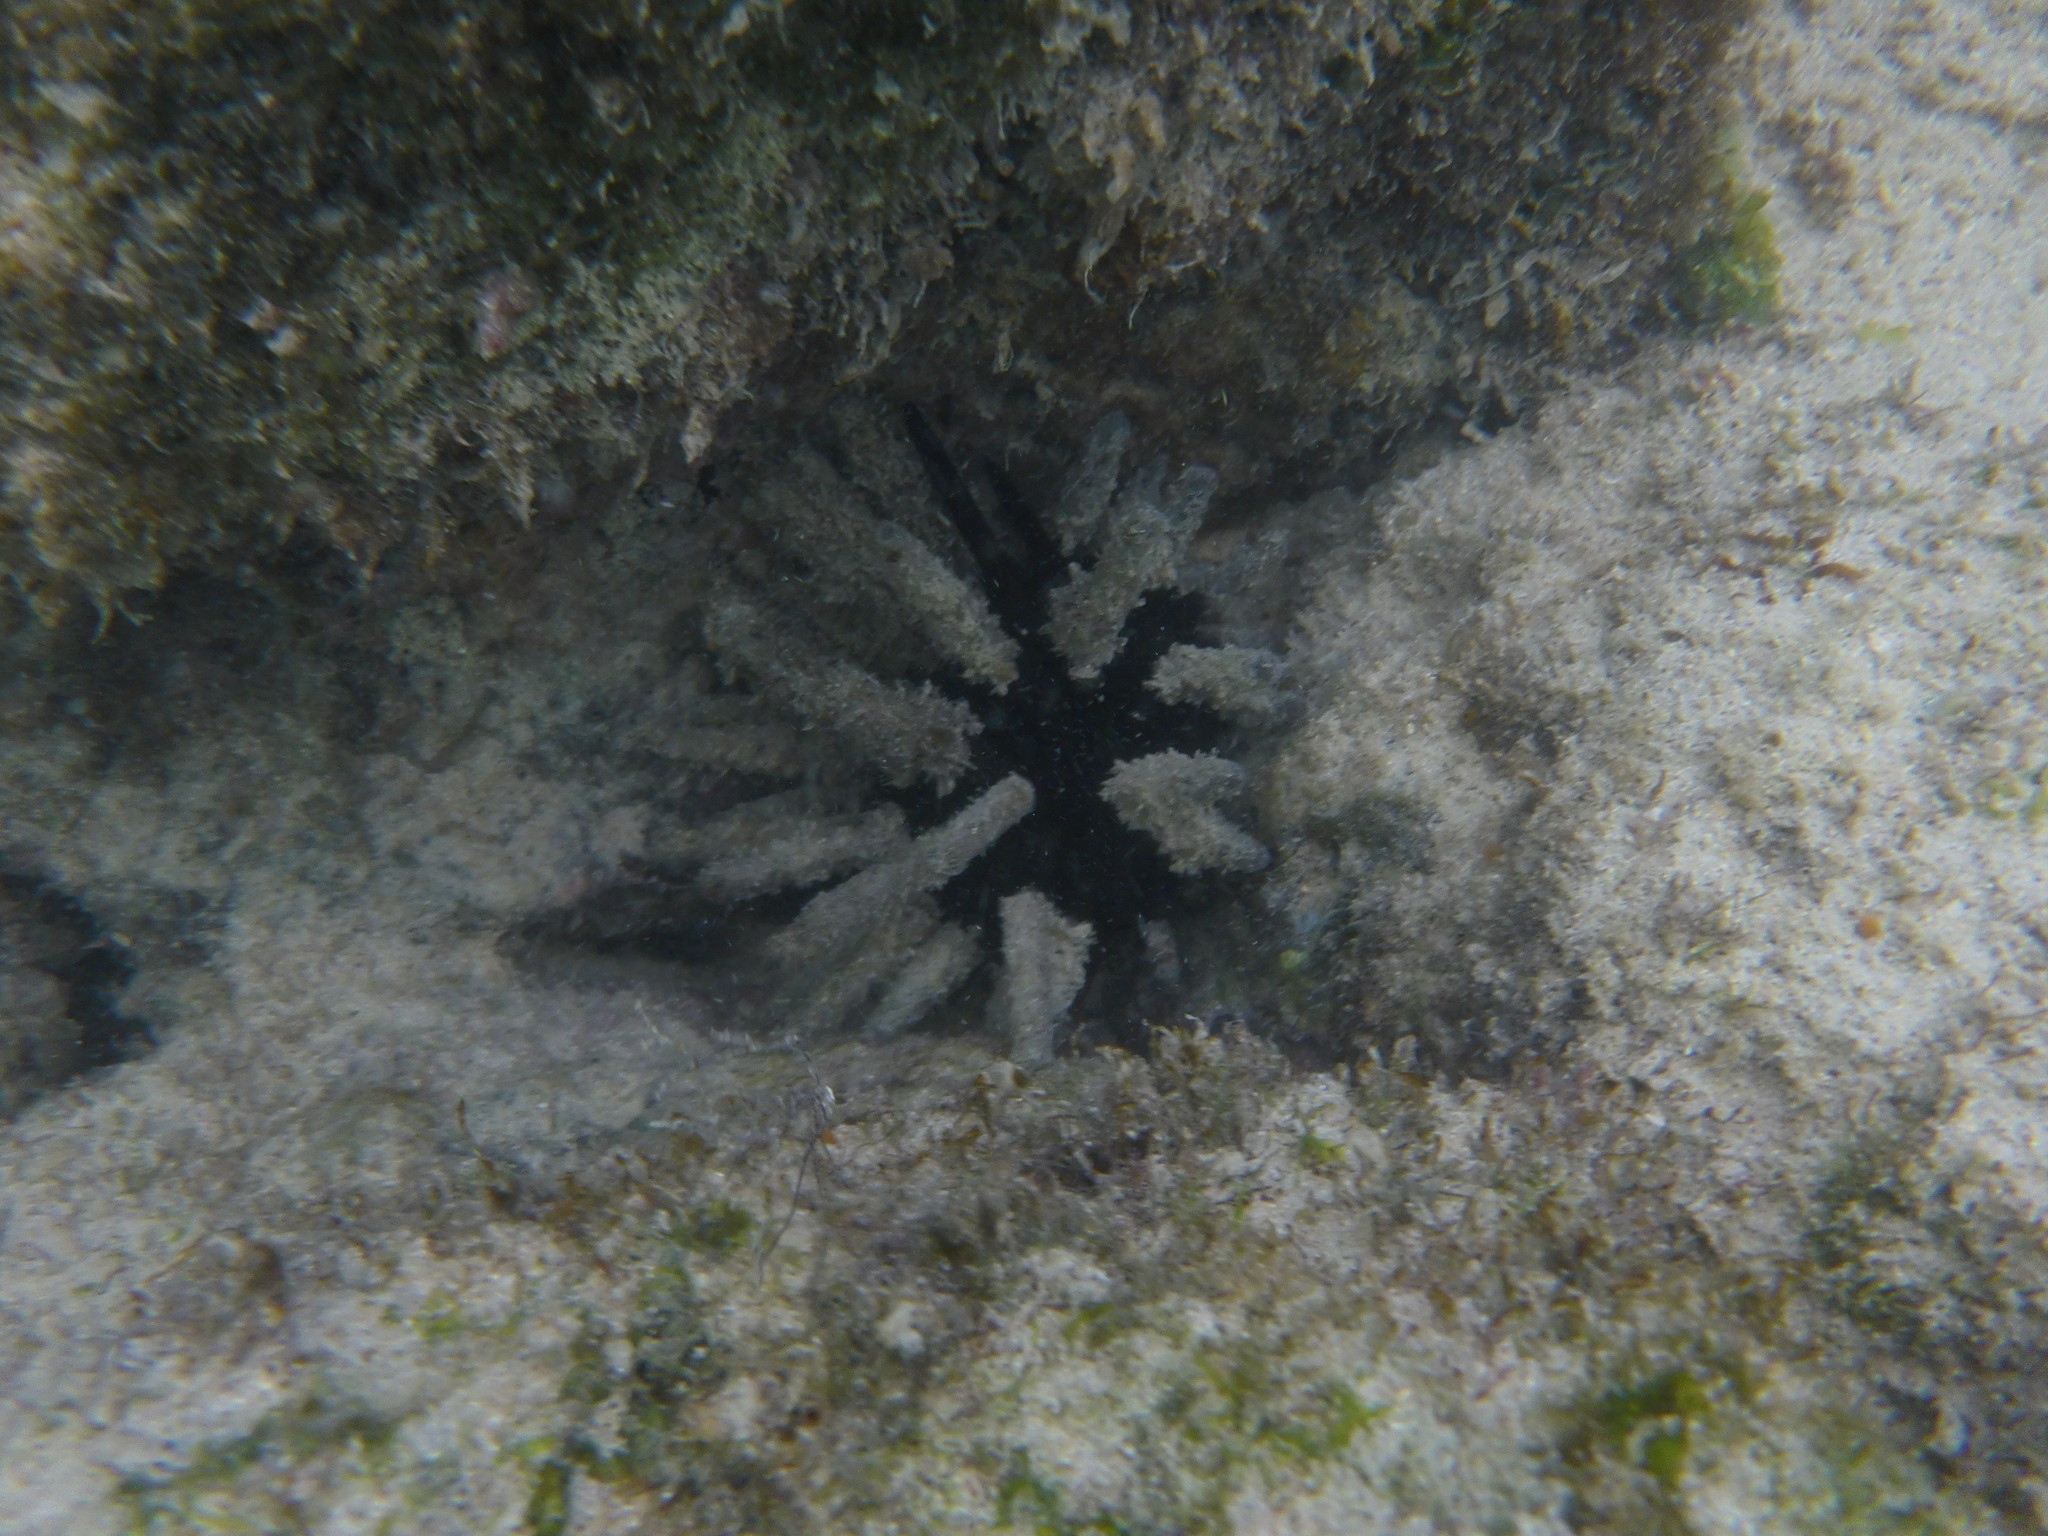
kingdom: Animalia
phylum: Echinodermata
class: Echinoidea
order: Cidaroida
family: Cidaridae
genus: Eucidaris
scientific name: Eucidaris galapagensis
